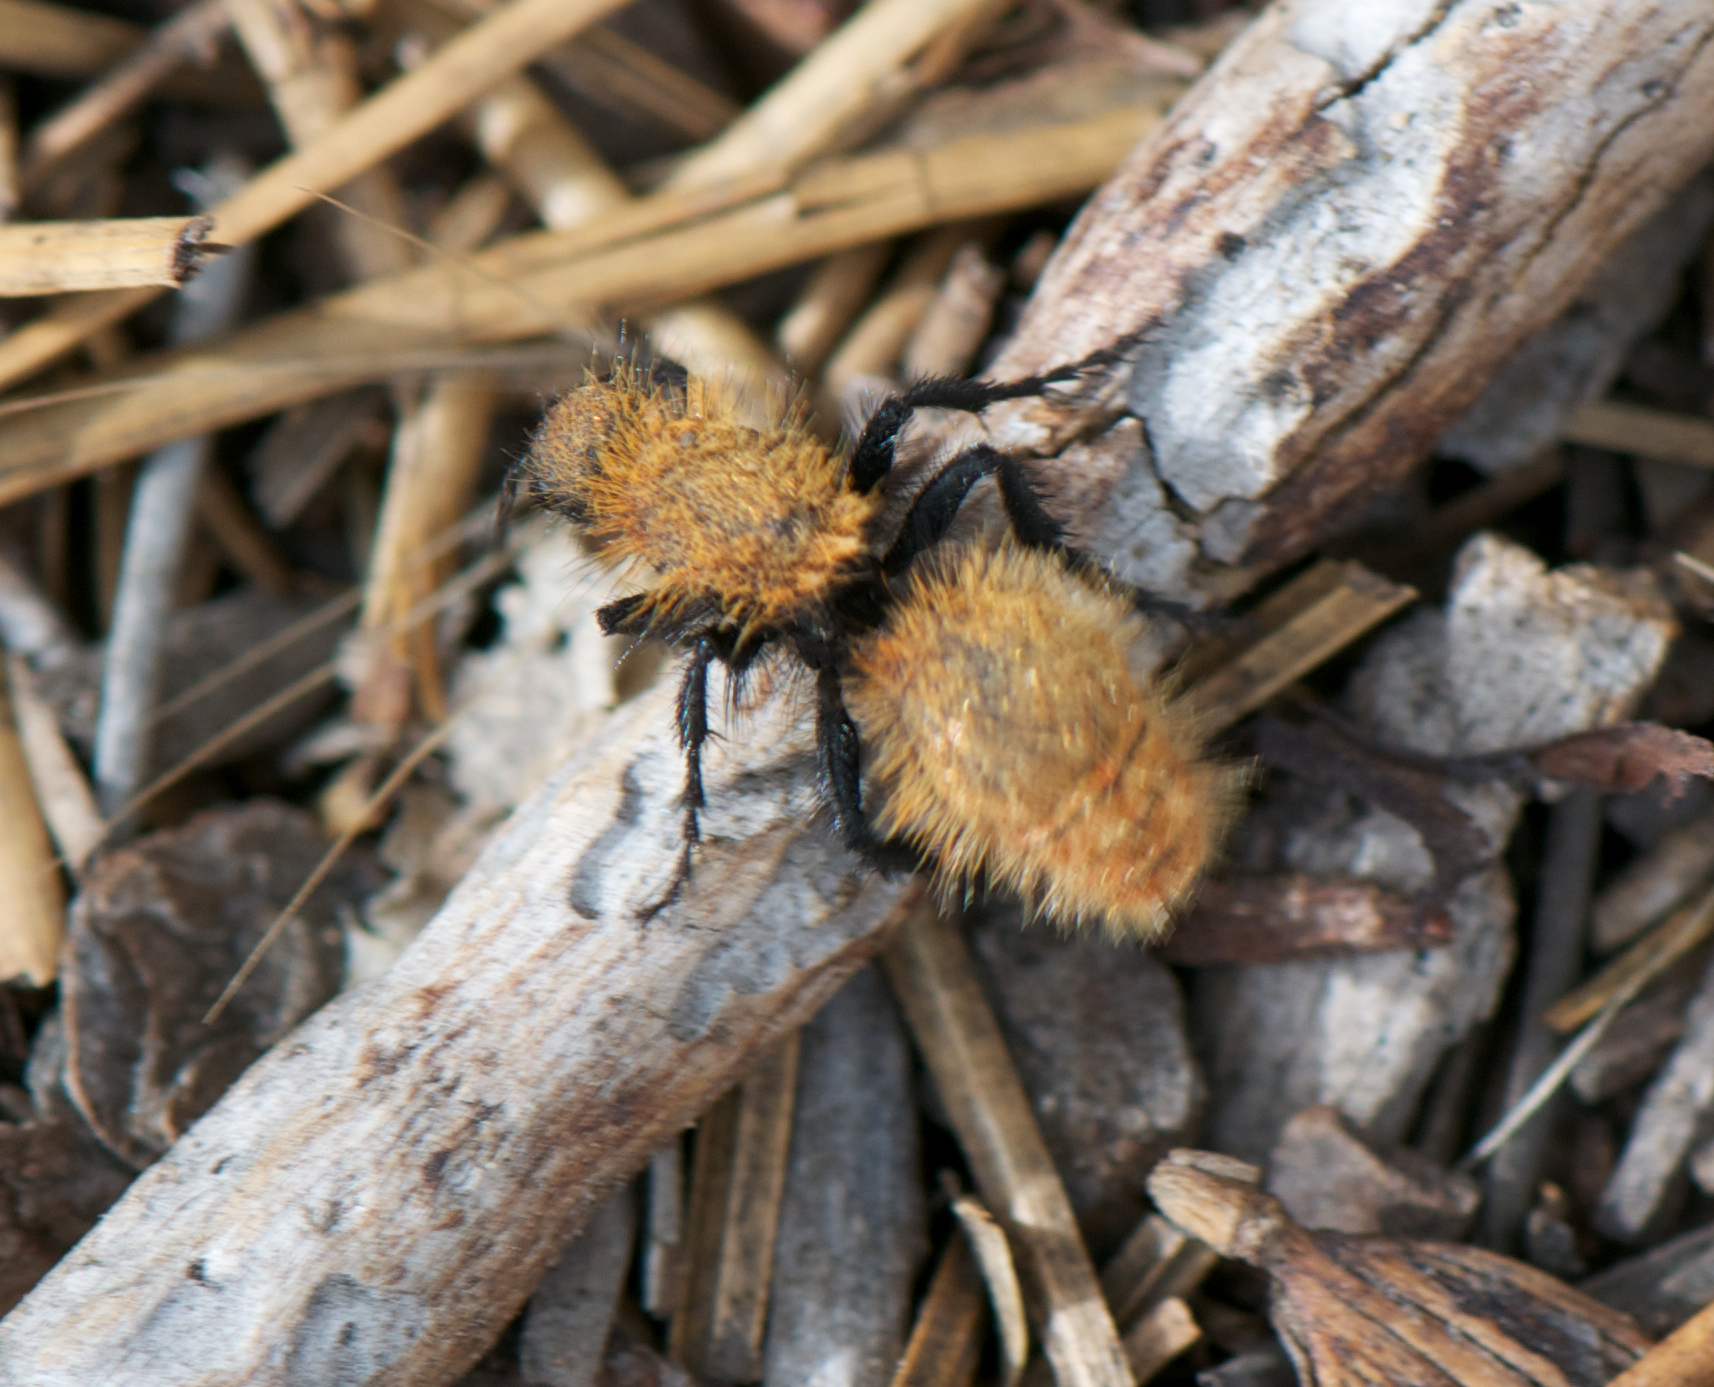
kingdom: Animalia
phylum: Arthropoda
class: Insecta
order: Hymenoptera
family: Mutillidae
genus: Dasymutilla
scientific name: Dasymutilla
